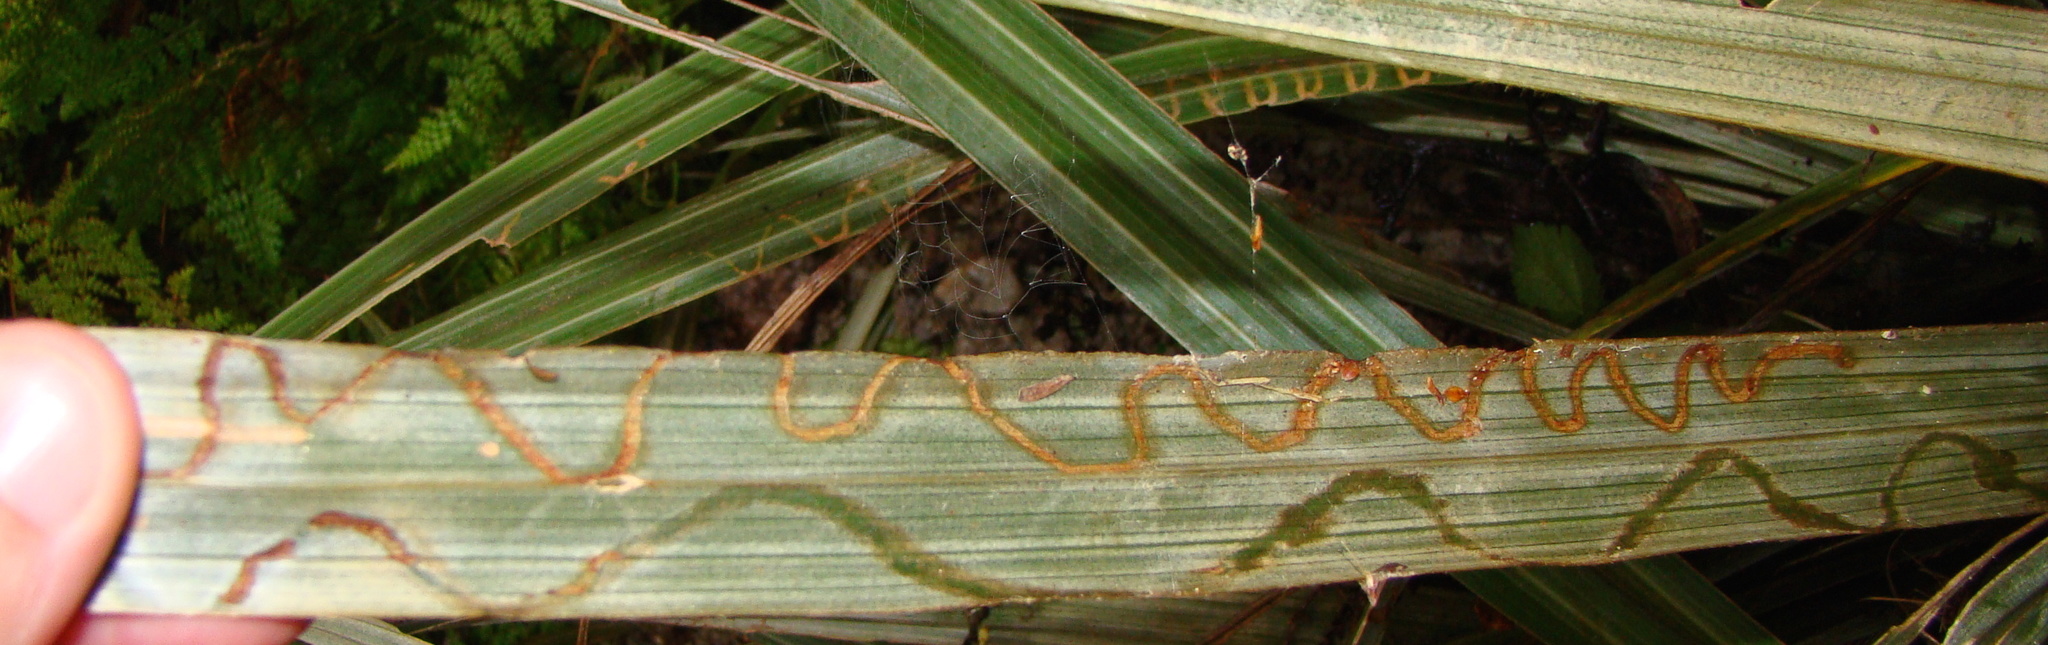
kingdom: Animalia
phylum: Arthropoda
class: Insecta
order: Lepidoptera
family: Plutellidae
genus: Charixena
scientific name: Charixena iridoxa
